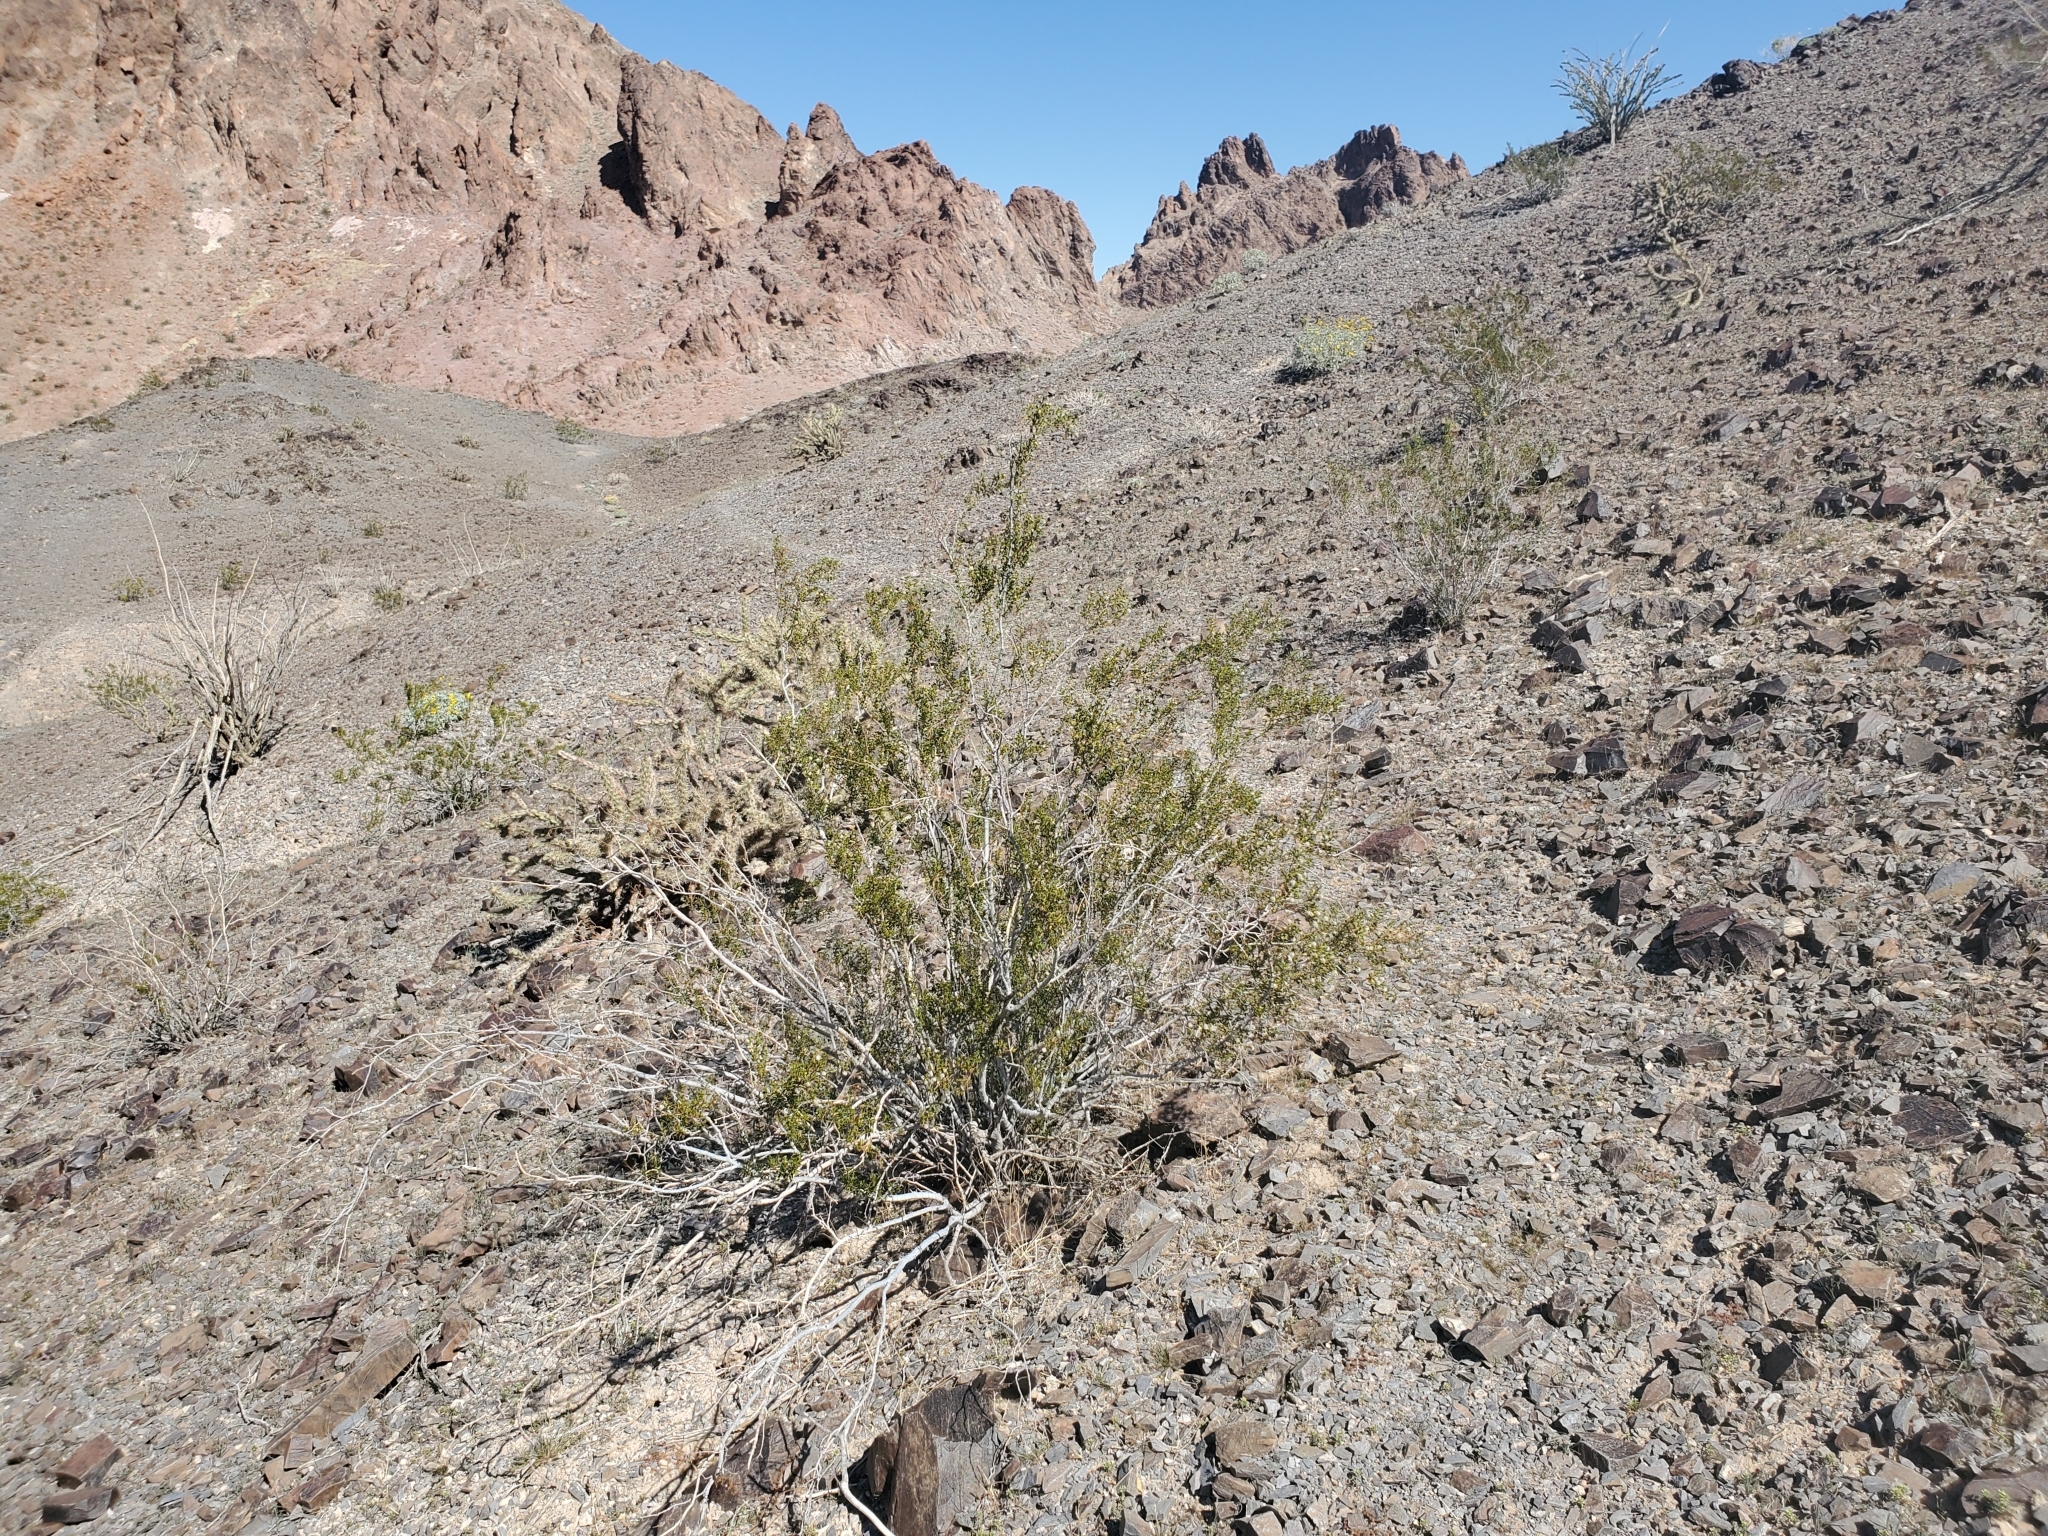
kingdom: Plantae
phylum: Tracheophyta
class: Magnoliopsida
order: Zygophyllales
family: Zygophyllaceae
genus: Larrea
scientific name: Larrea tridentata
